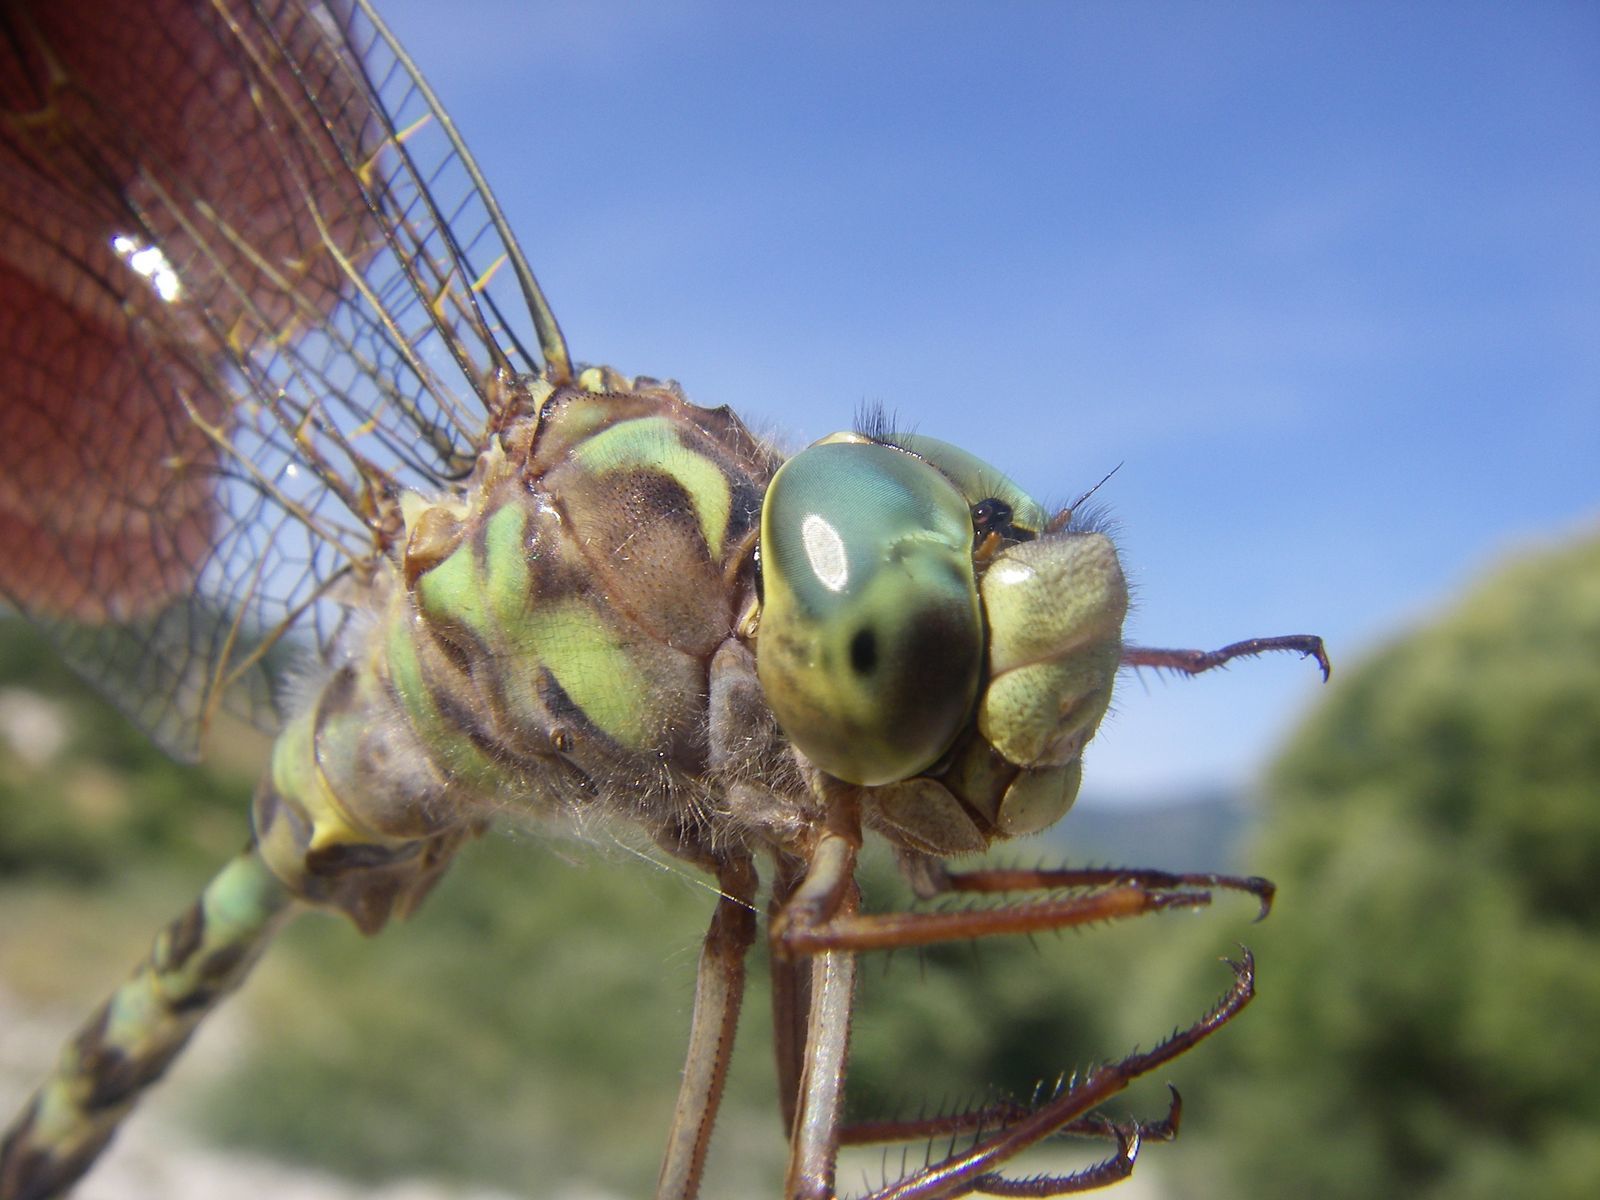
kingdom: Animalia
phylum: Arthropoda
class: Insecta
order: Odonata
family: Aeshnidae
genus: Boyeria
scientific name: Boyeria irene
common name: Western spectre
